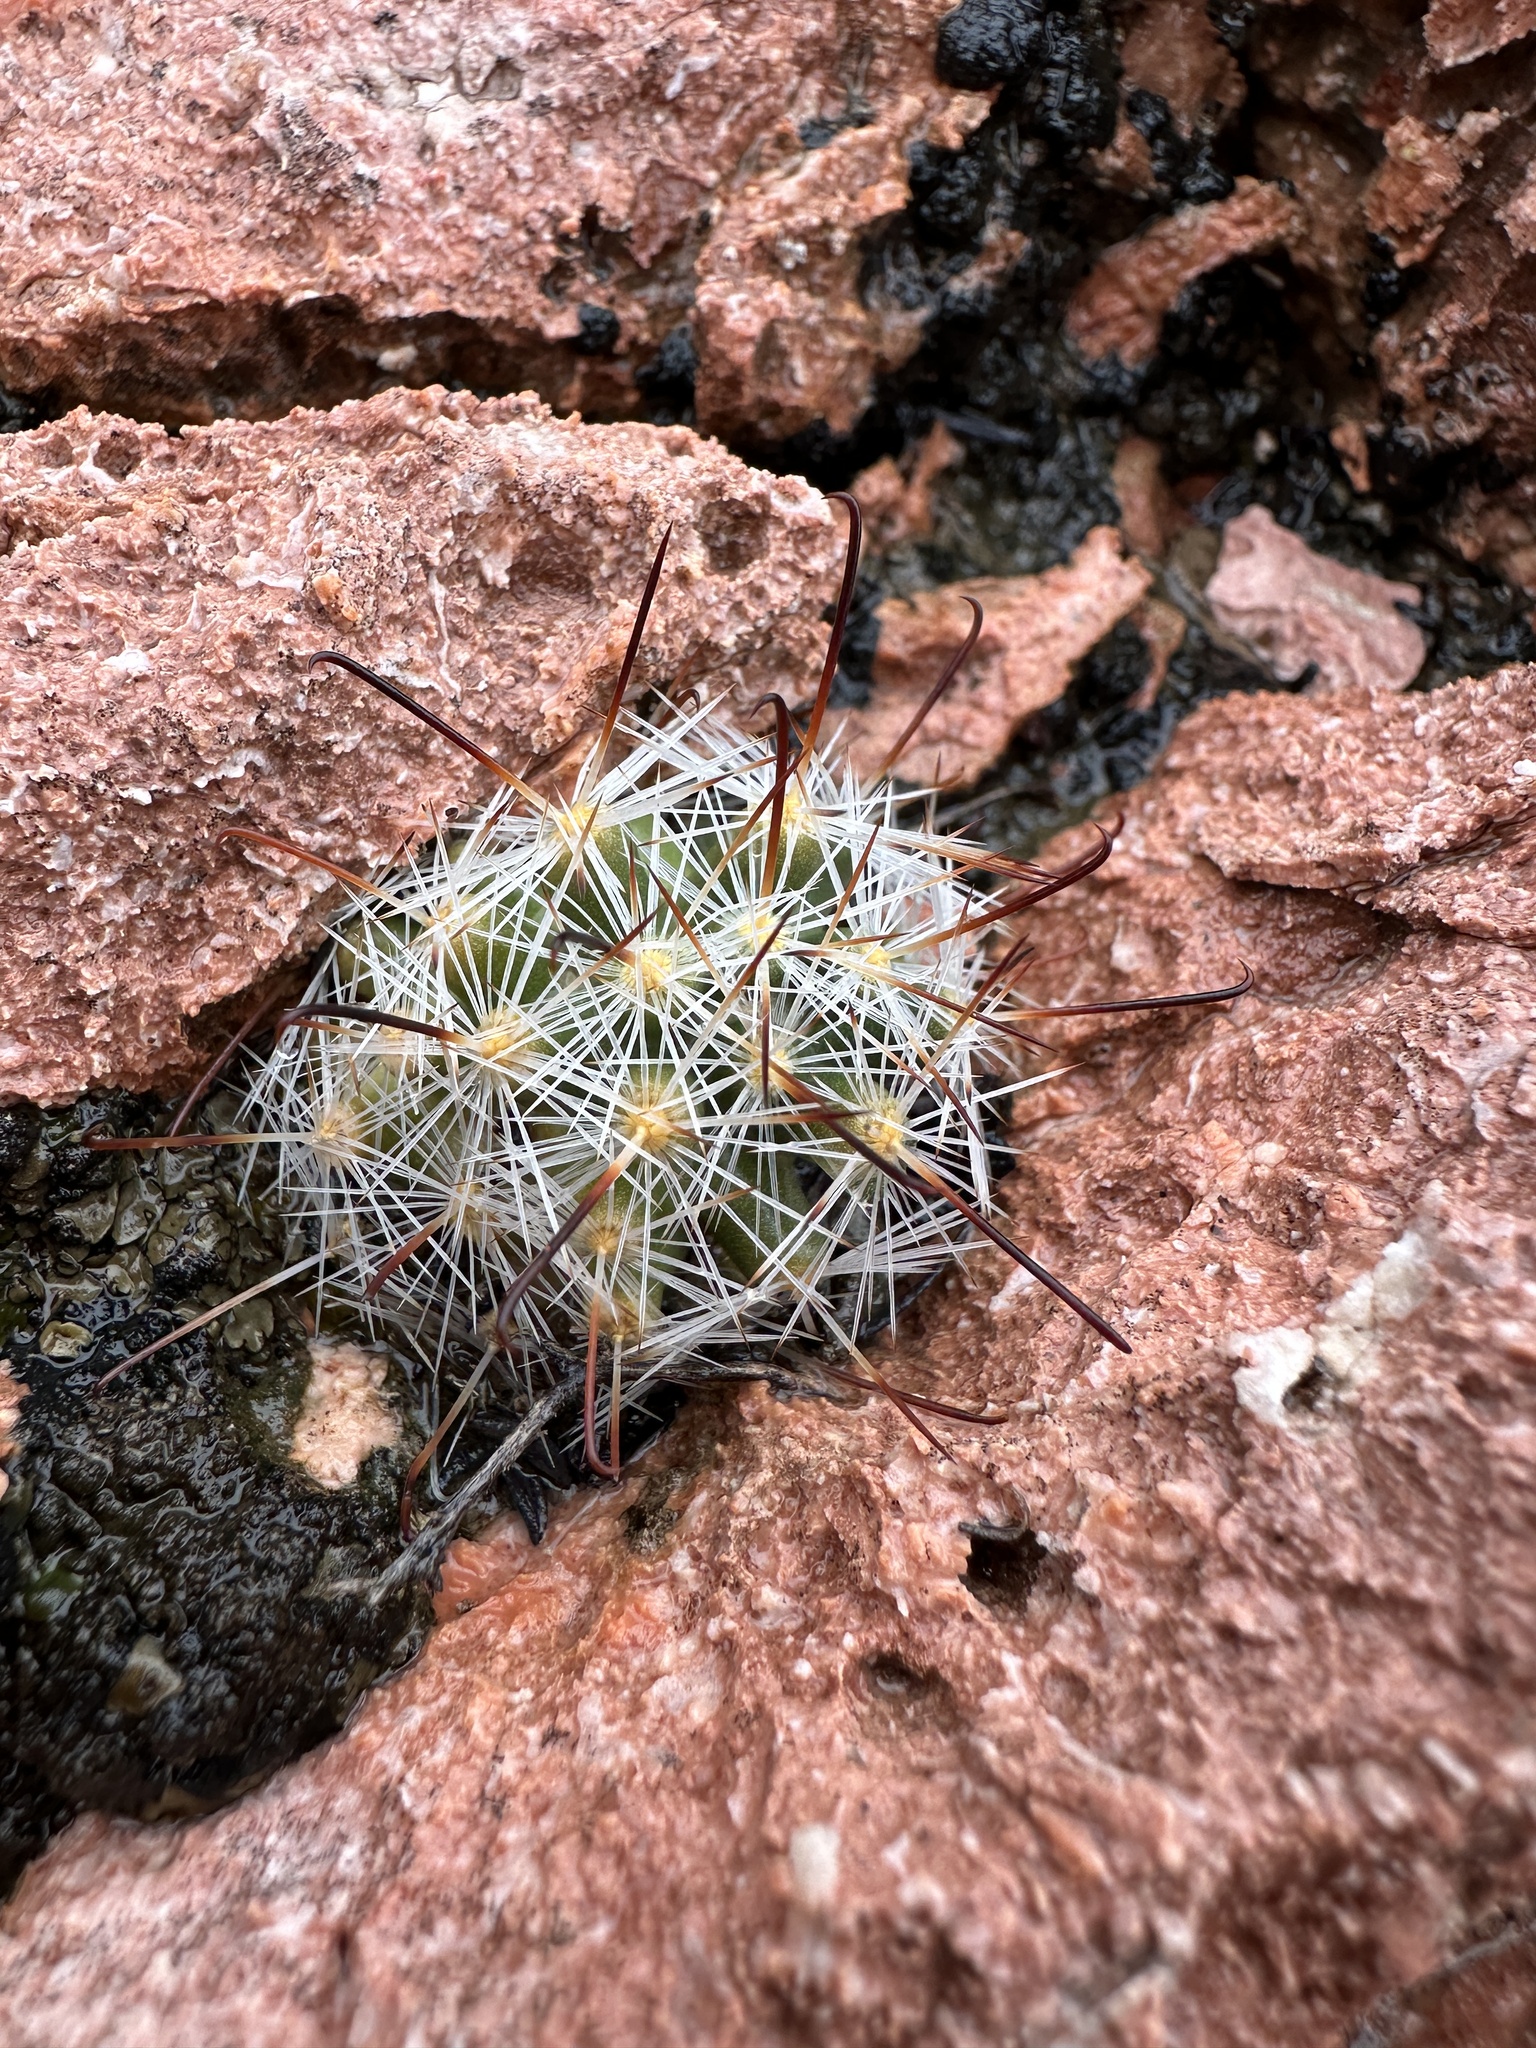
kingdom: Plantae
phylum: Tracheophyta
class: Magnoliopsida
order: Caryophyllales
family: Cactaceae
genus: Cochemiea
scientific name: Cochemiea tetrancistra
